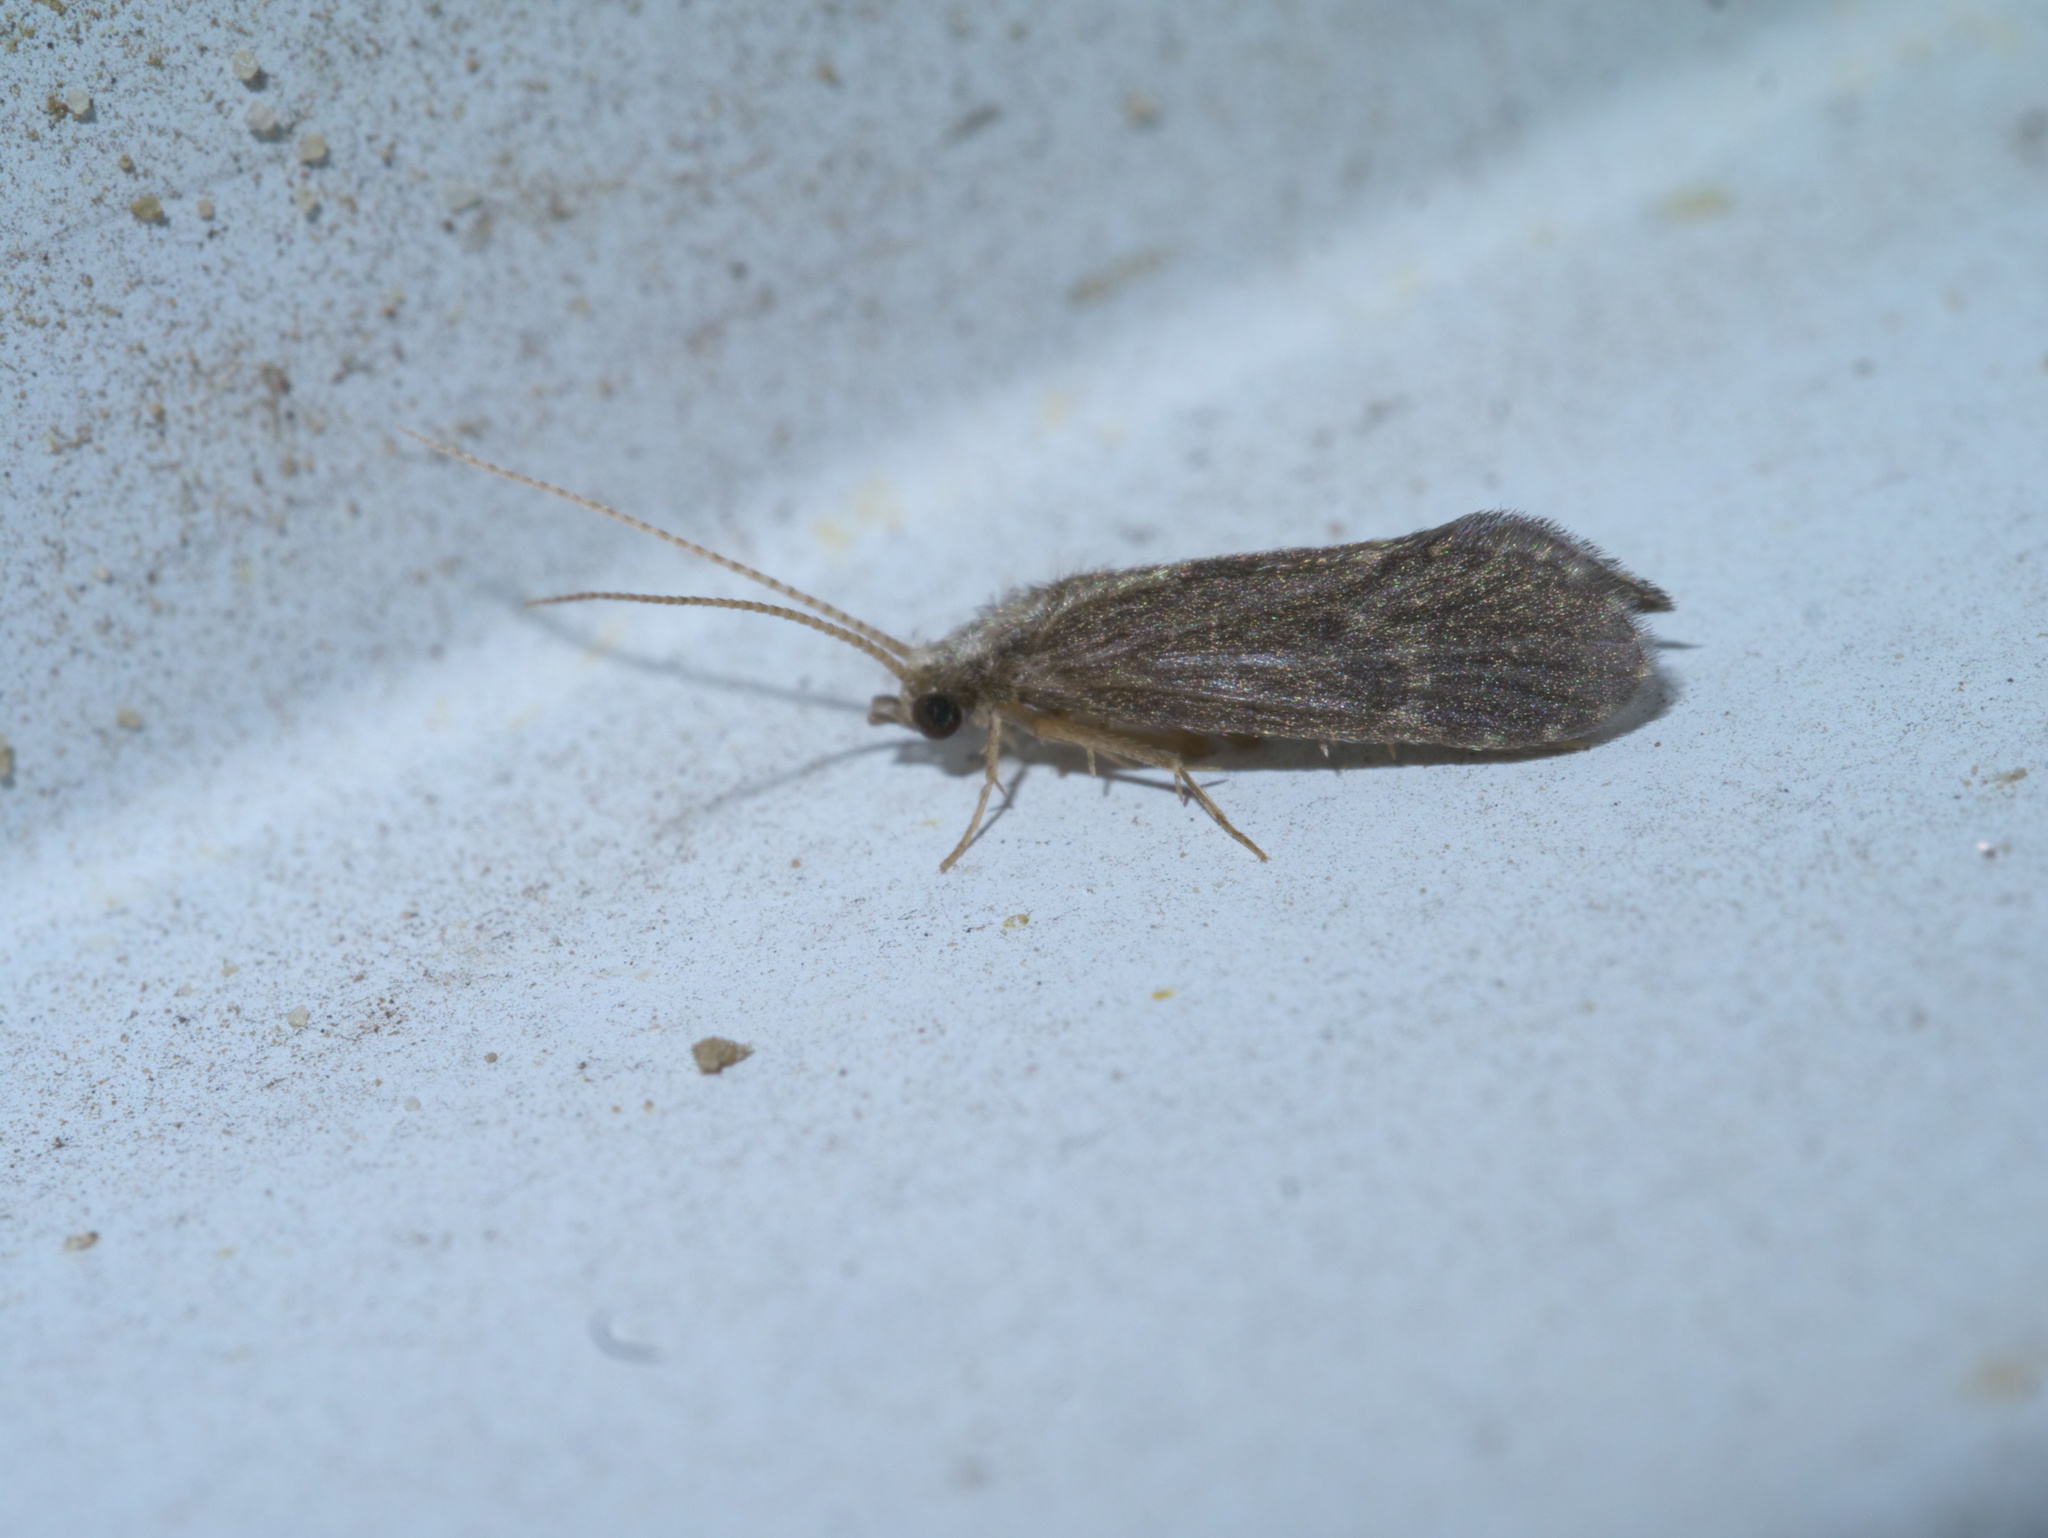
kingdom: Animalia
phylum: Arthropoda
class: Insecta
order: Trichoptera
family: Polycentropodidae
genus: Cyrnellus
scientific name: Cyrnellus fraternus
